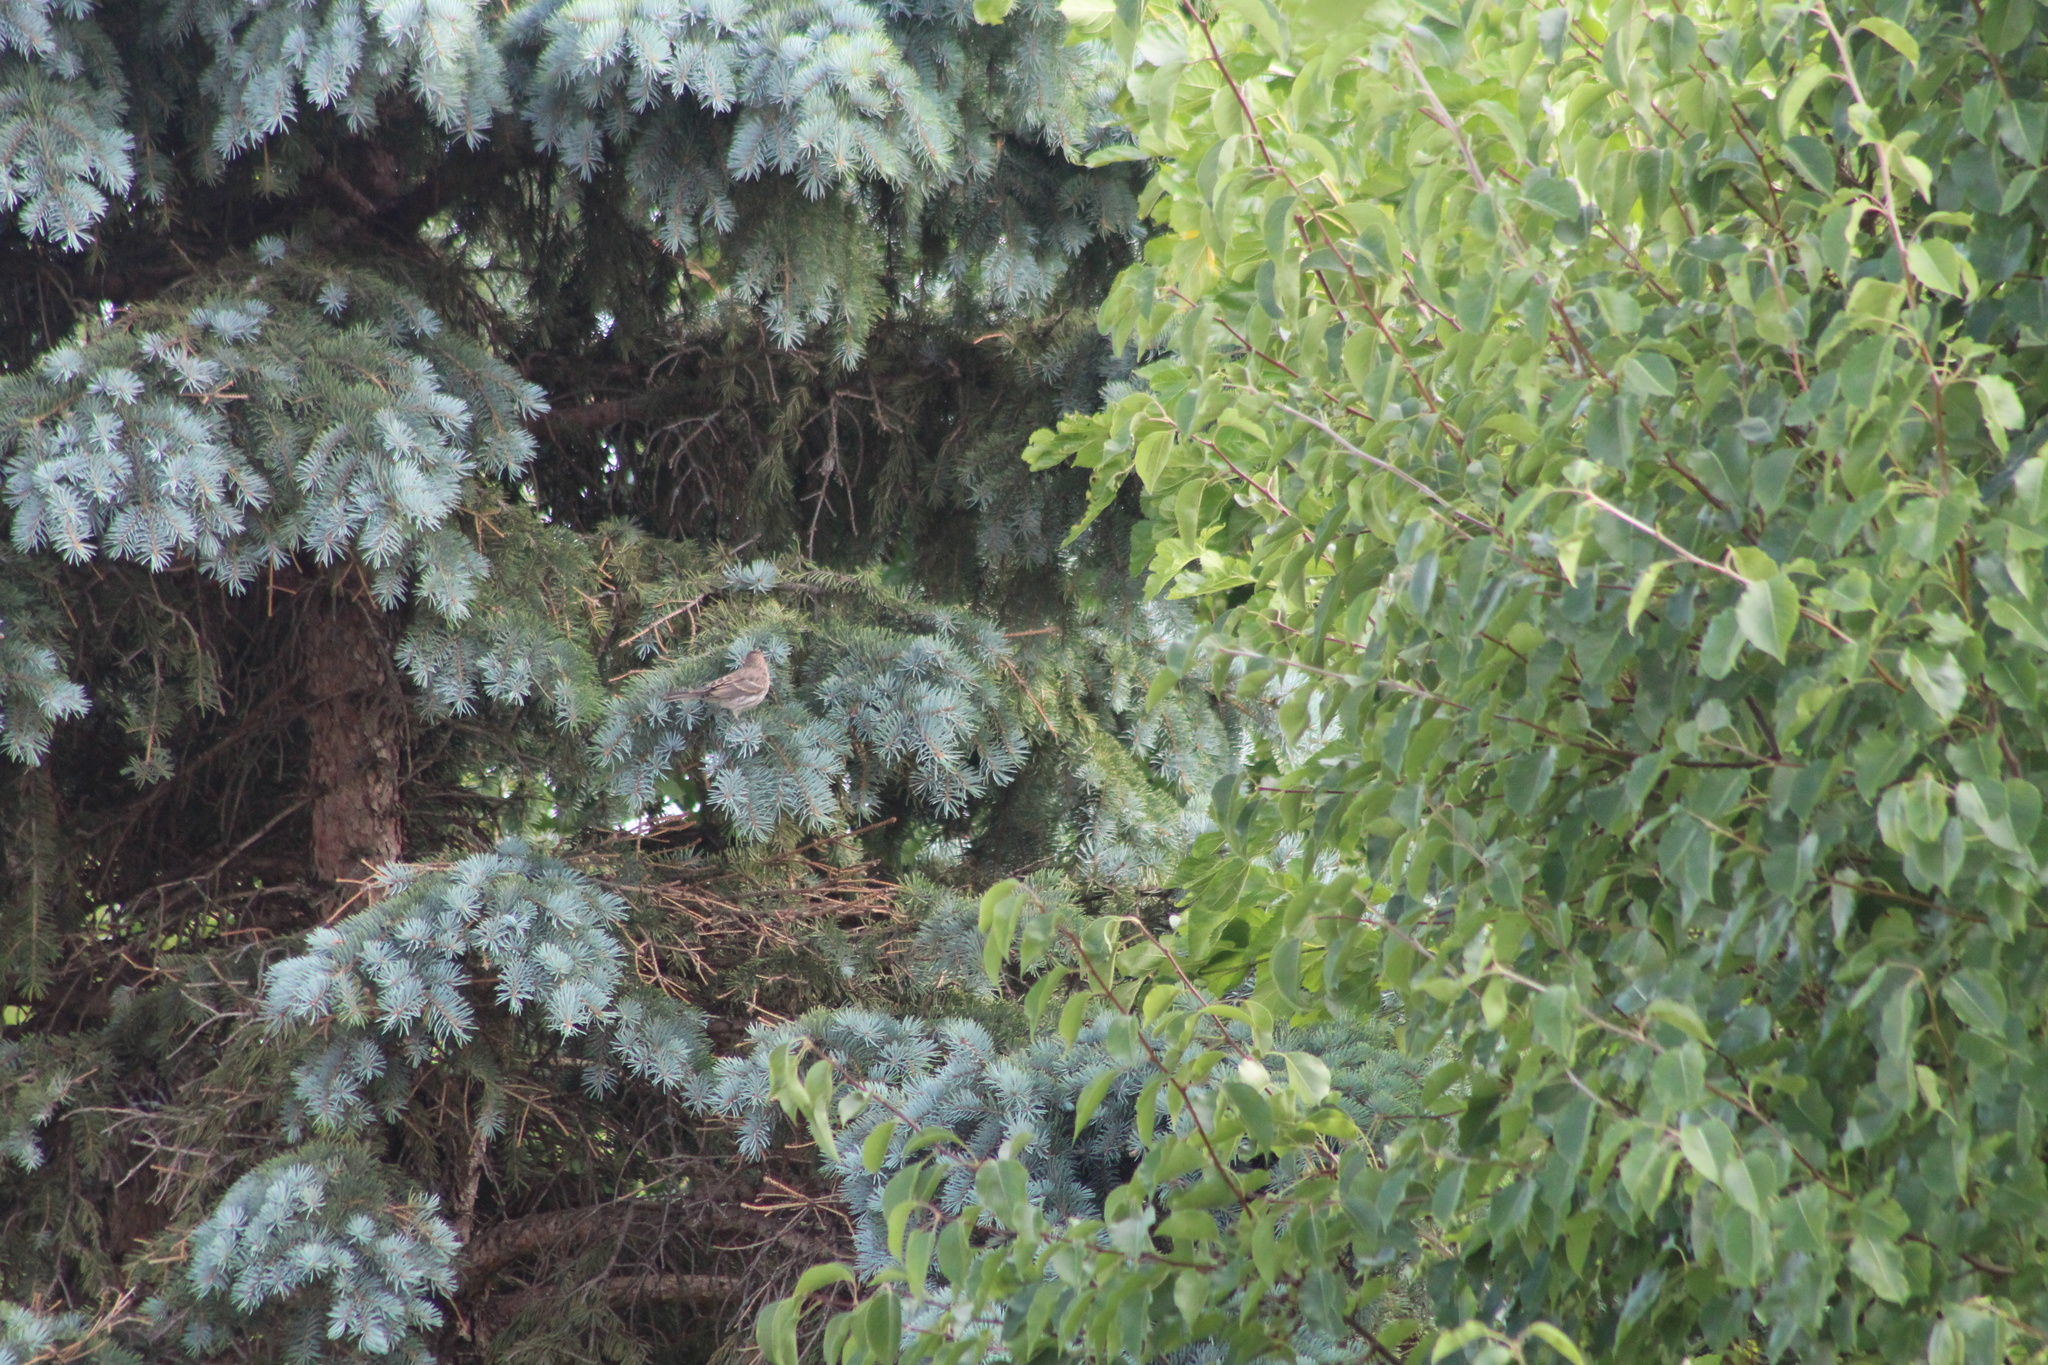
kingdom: Animalia
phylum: Chordata
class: Aves
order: Passeriformes
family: Fringillidae
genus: Haemorhous
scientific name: Haemorhous mexicanus
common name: House finch
